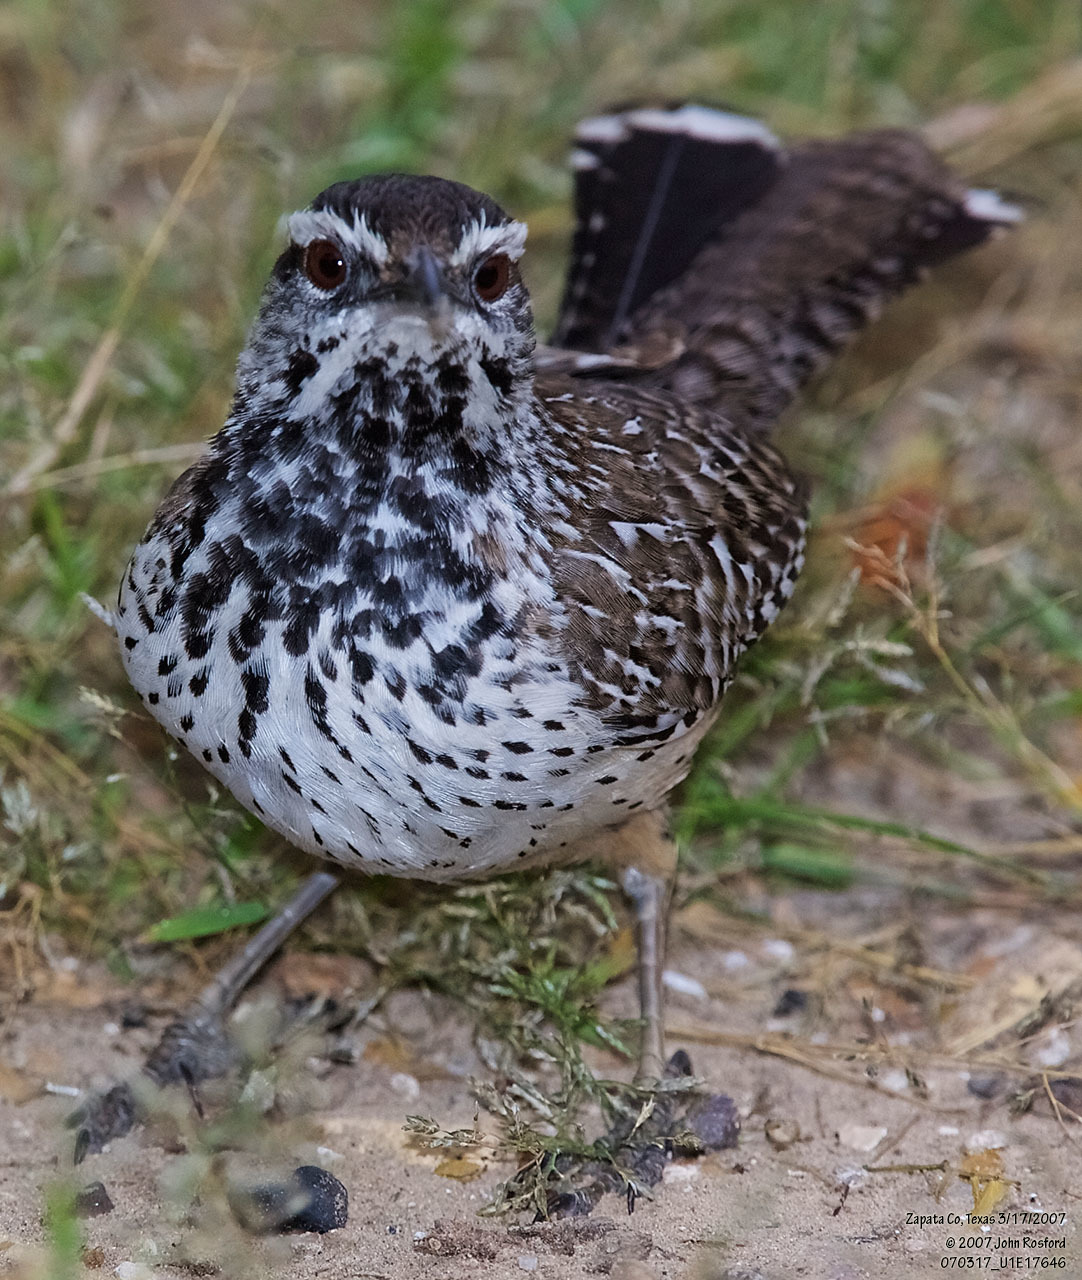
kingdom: Animalia
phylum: Chordata
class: Aves
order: Passeriformes
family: Troglodytidae
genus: Campylorhynchus
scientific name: Campylorhynchus brunneicapillus
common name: Cactus wren
